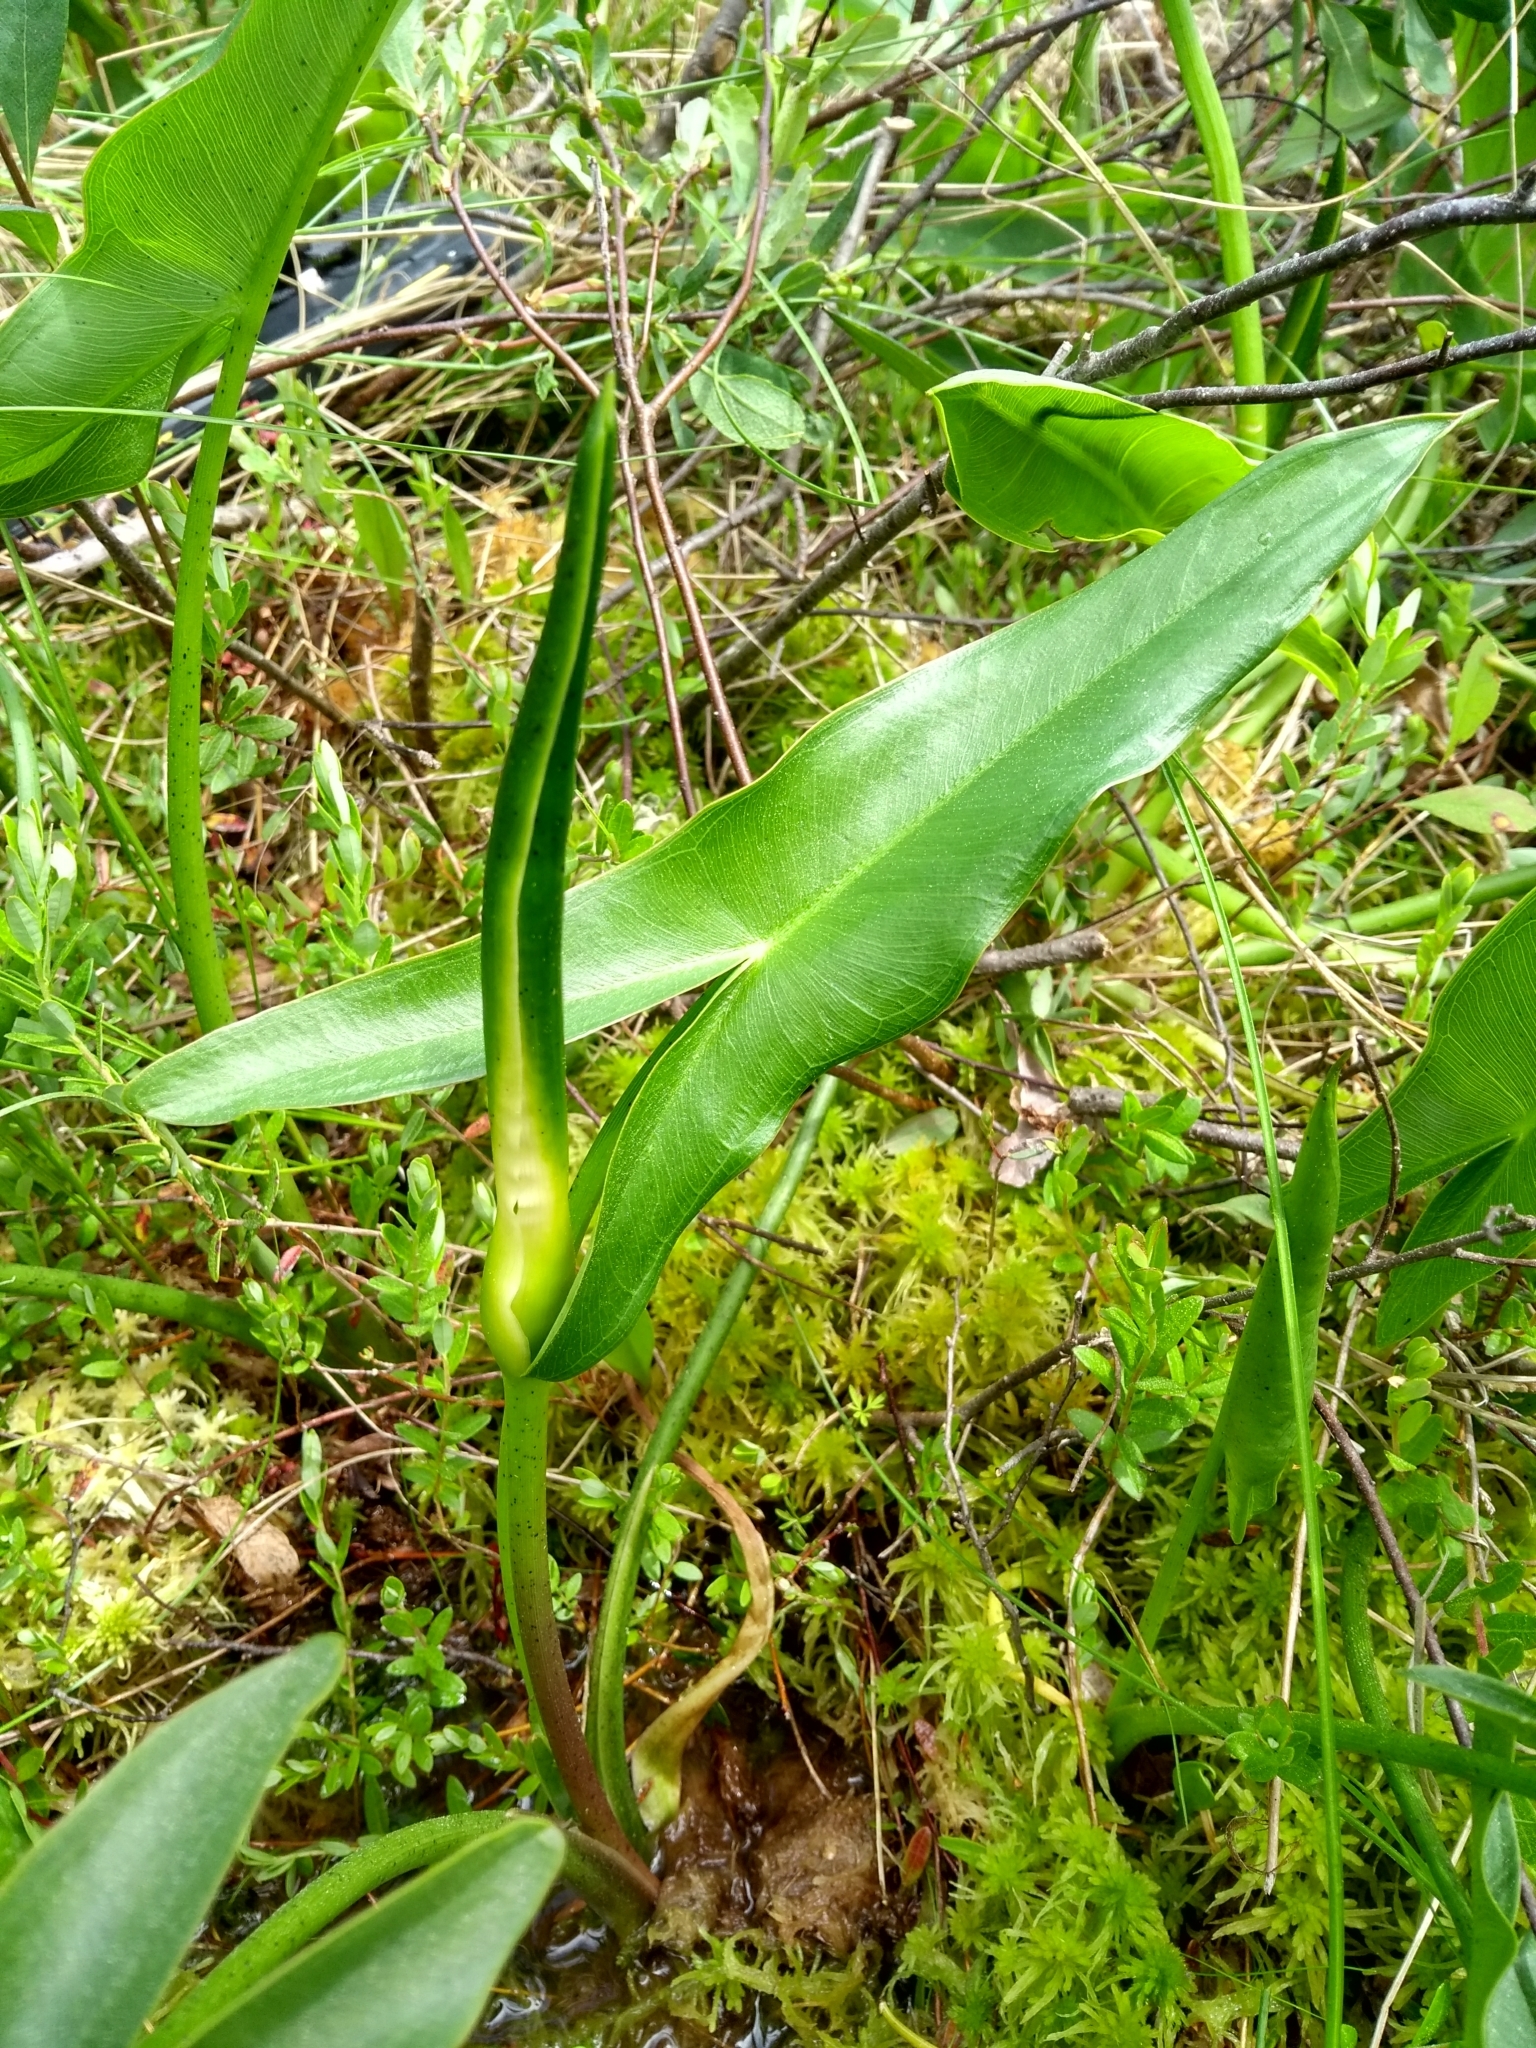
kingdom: Plantae
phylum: Tracheophyta
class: Liliopsida
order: Alismatales
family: Araceae
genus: Peltandra
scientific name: Peltandra virginica
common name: Arrow arum
